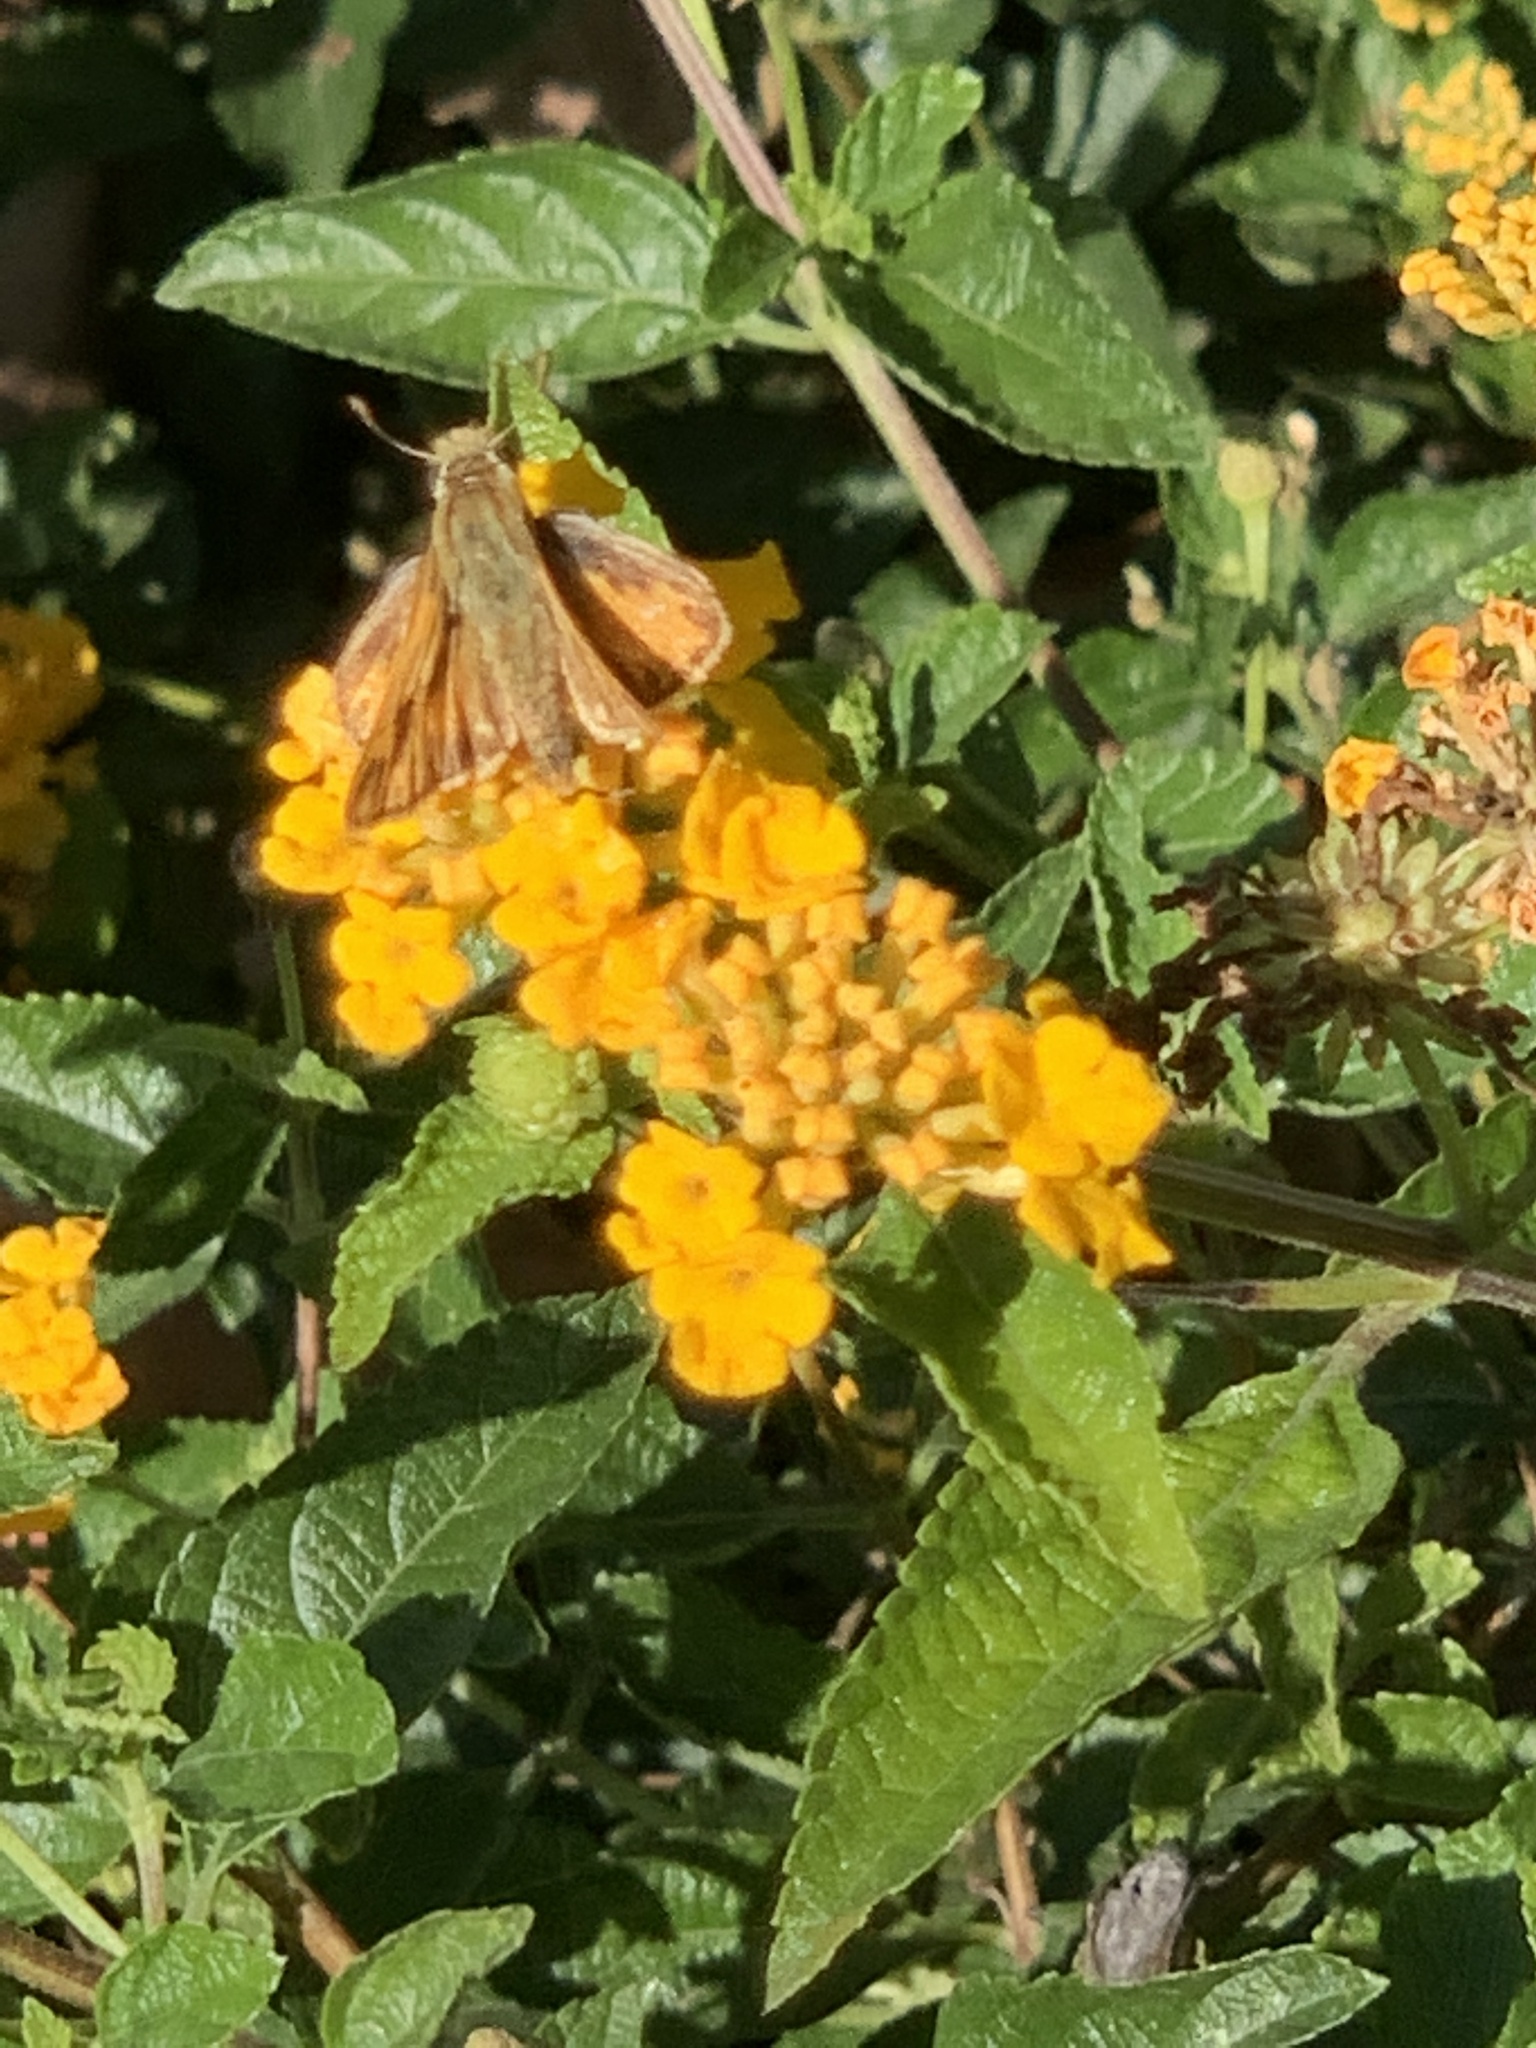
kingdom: Animalia
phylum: Arthropoda
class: Insecta
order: Lepidoptera
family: Hesperiidae
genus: Hylephila
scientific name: Hylephila phyleus
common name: Fiery skipper
